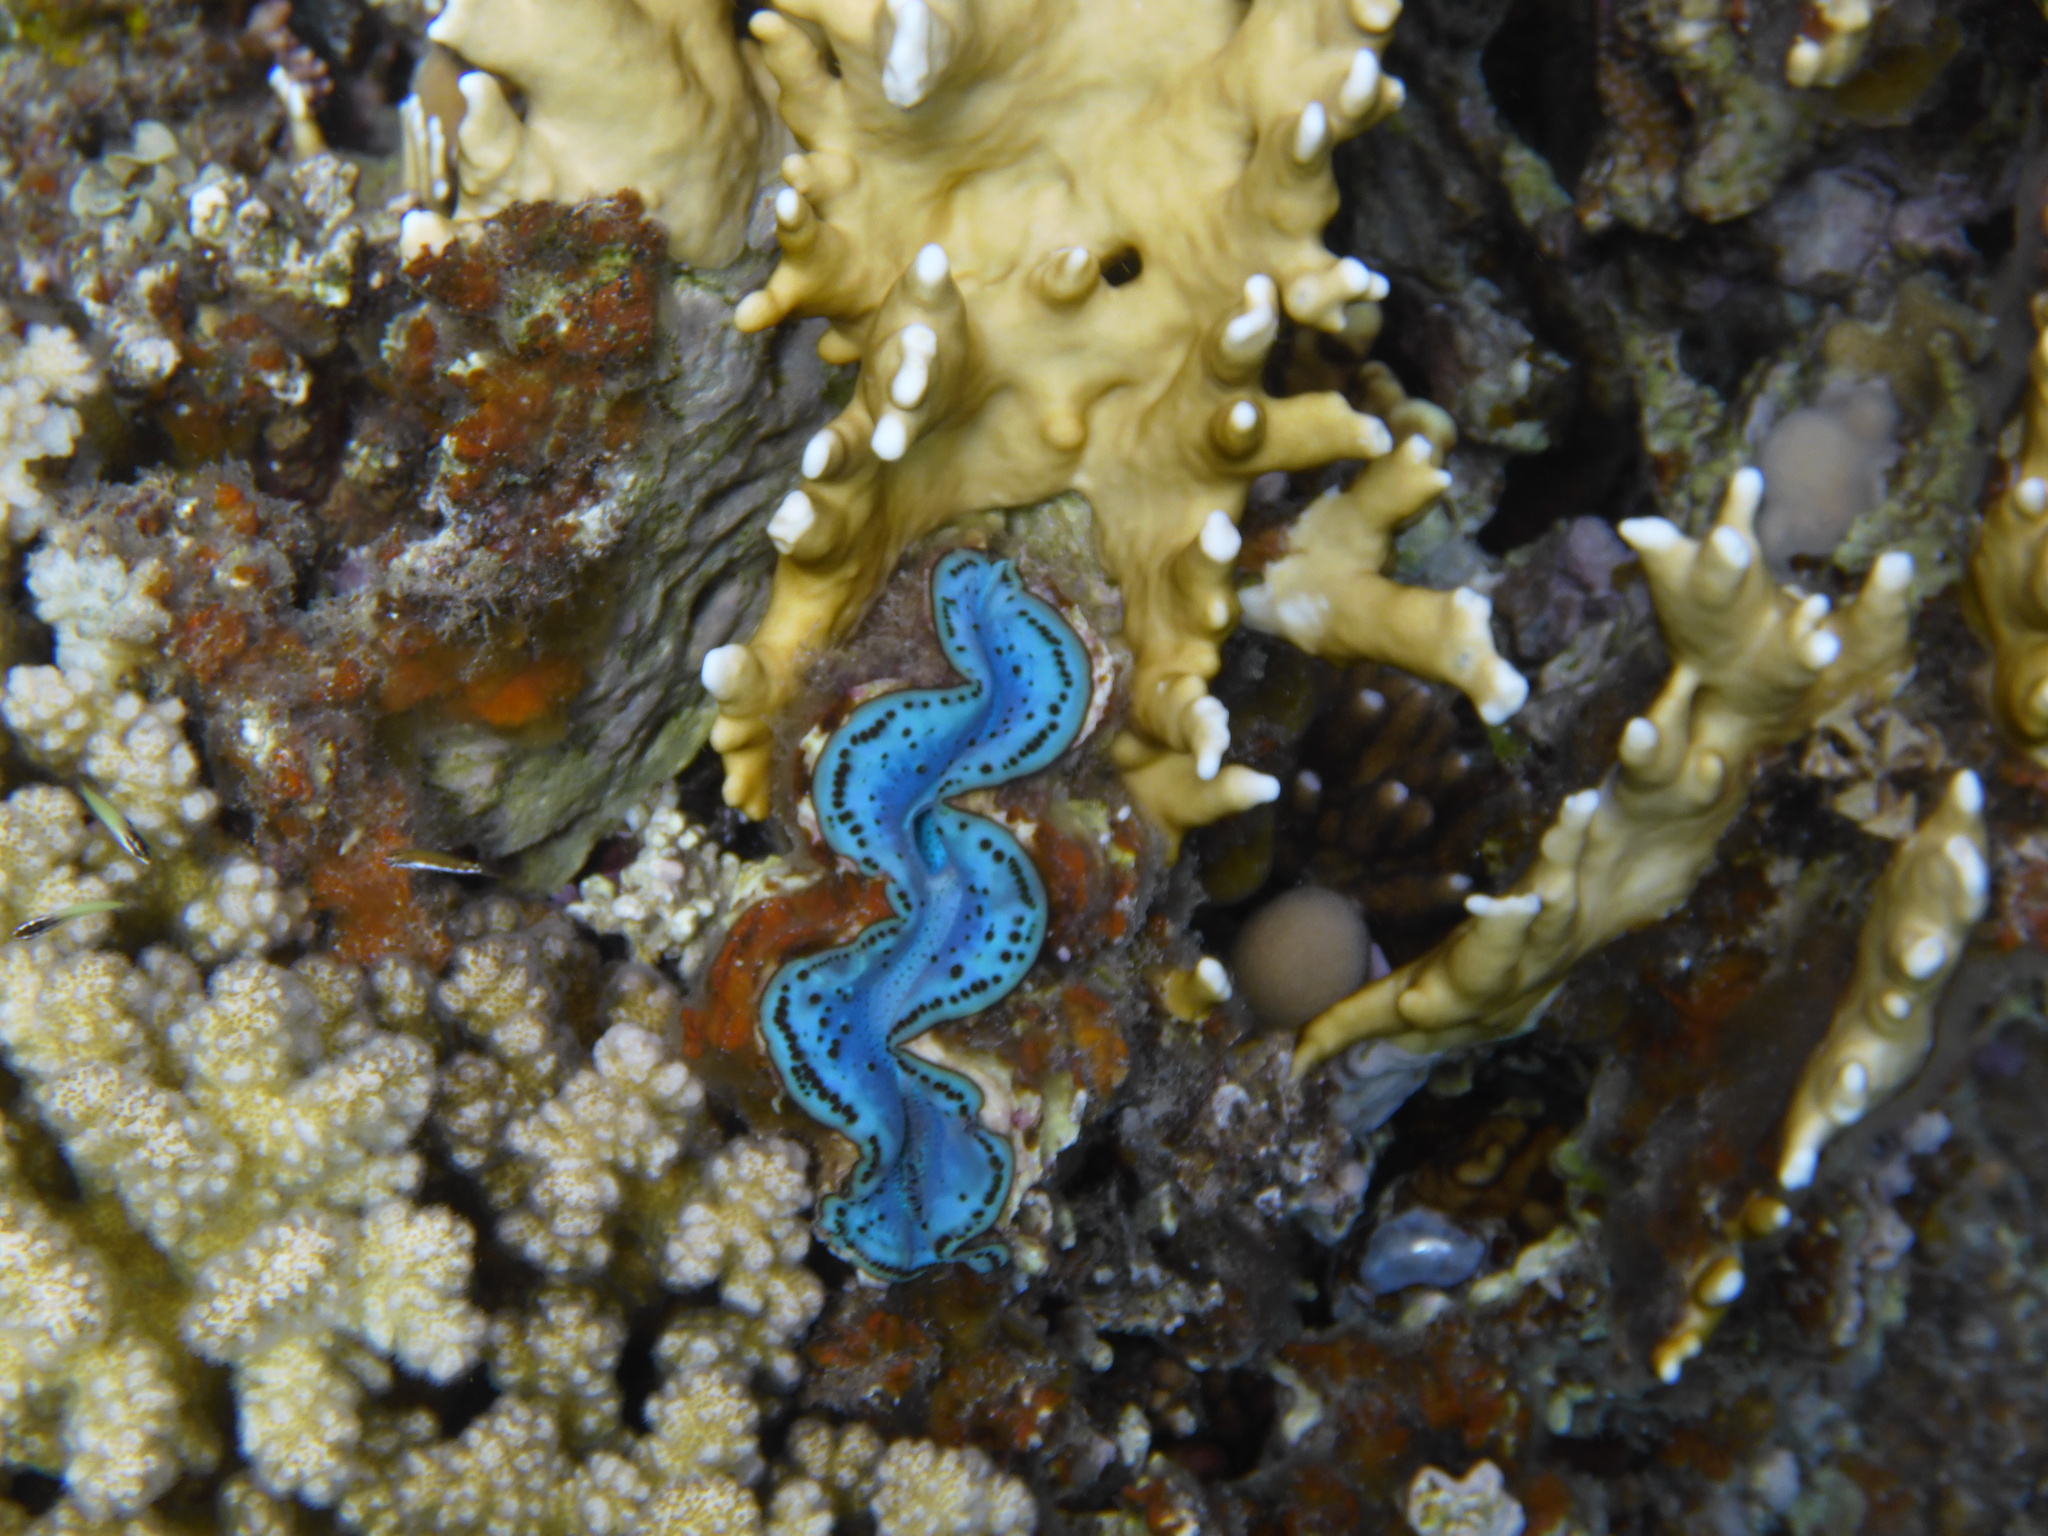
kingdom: Animalia
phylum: Mollusca
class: Bivalvia
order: Cardiida
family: Cardiidae
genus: Tridacna
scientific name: Tridacna maxima
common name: Small giant clam
